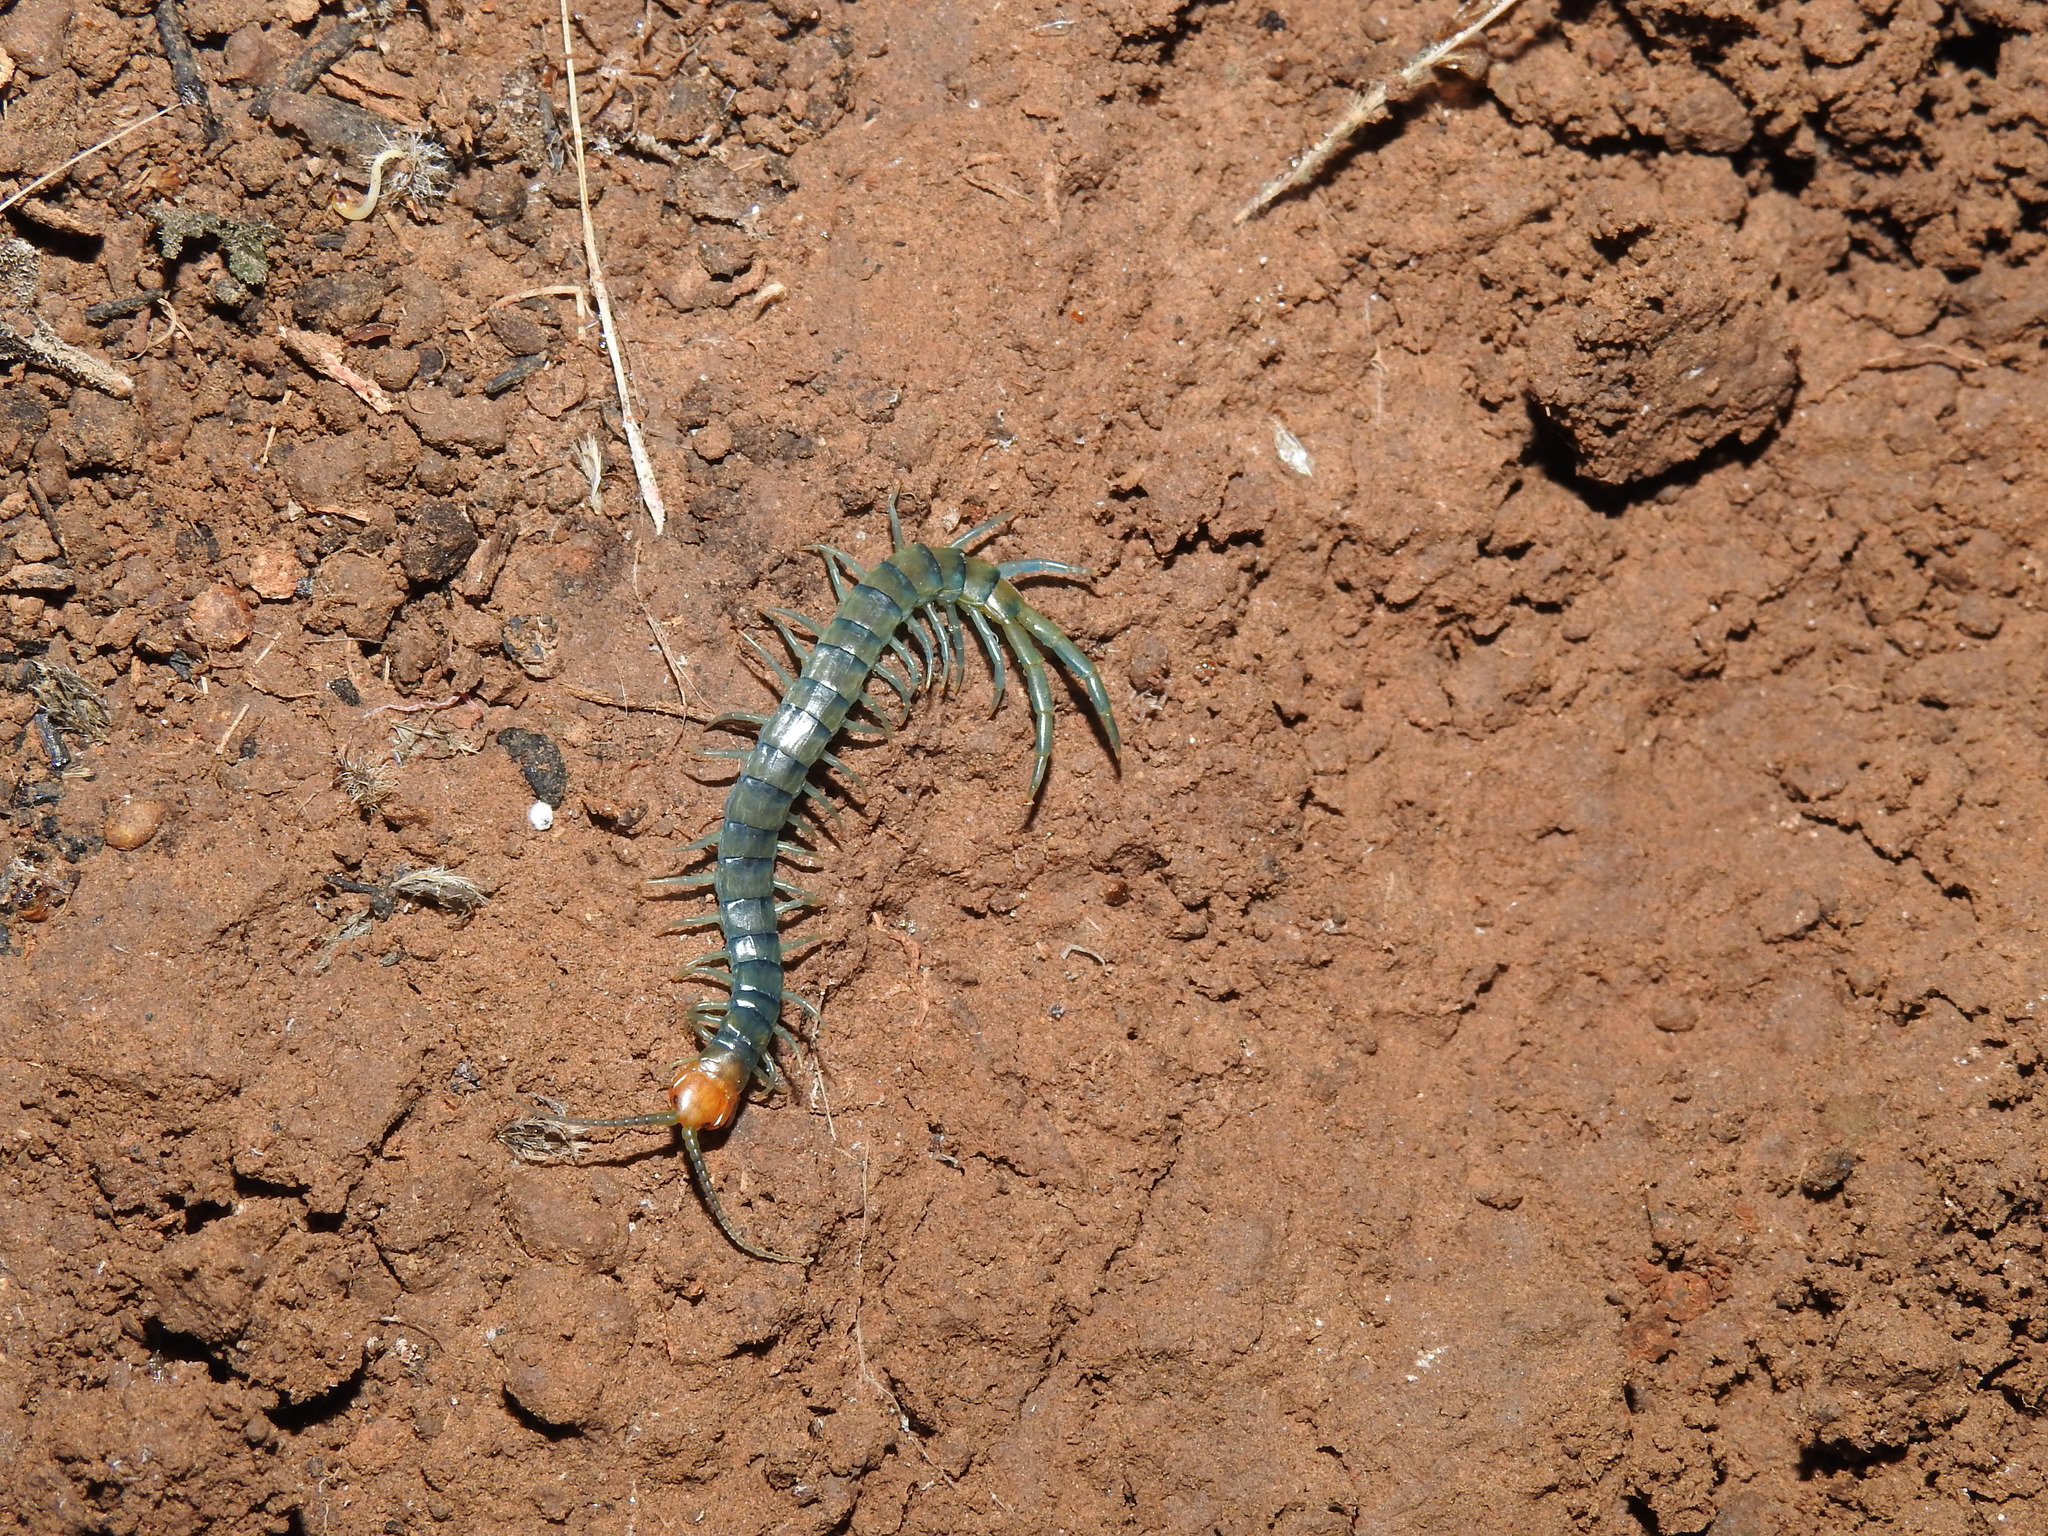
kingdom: Animalia
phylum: Arthropoda
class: Chilopoda
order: Scolopendromorpha
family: Scolopendridae
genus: Scolopendra
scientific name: Scolopendra polymorpha
